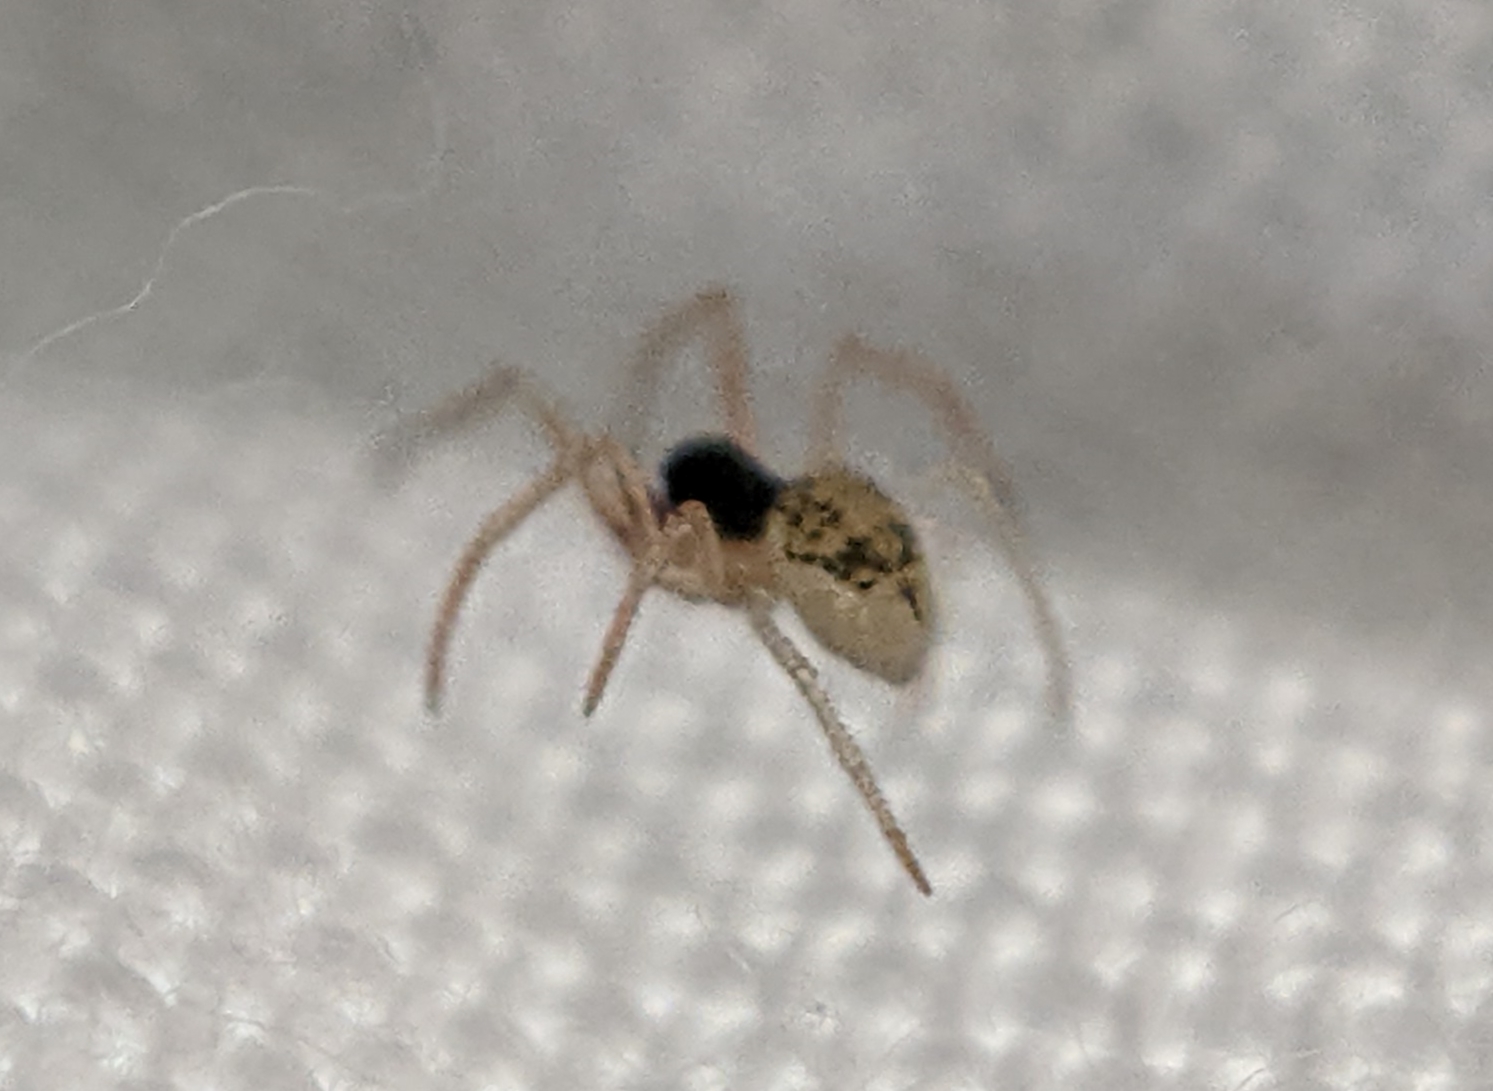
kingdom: Animalia
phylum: Arthropoda
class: Arachnida
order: Araneae
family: Theridiidae
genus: Paidiscura
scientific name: Paidiscura pallens
